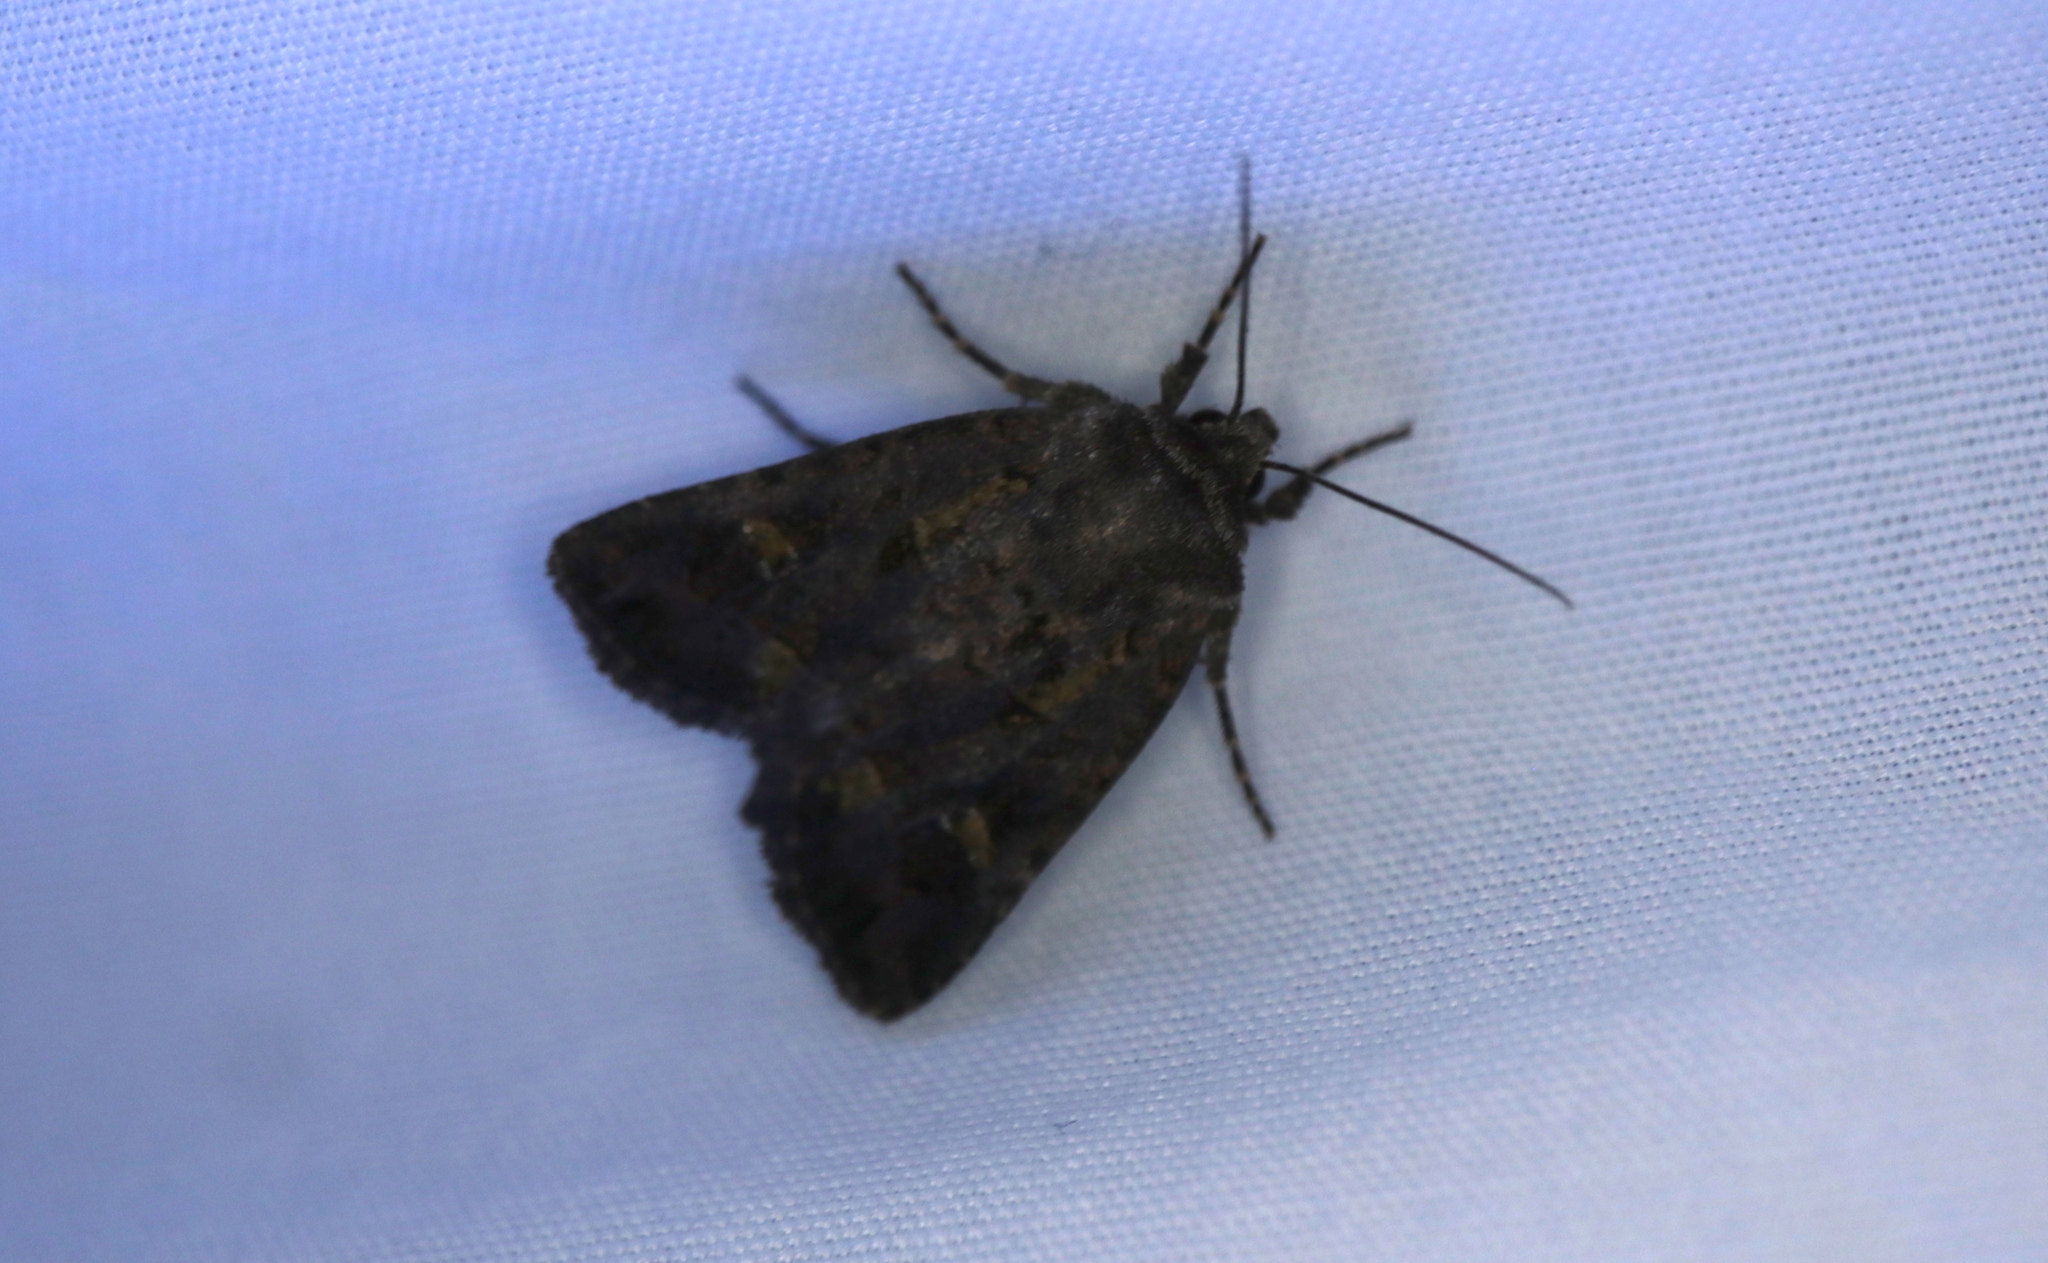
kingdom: Animalia
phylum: Arthropoda
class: Insecta
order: Lepidoptera
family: Noctuidae
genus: Lacinipolia
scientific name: Lacinipolia renigera
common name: Kidney-spotted minor
